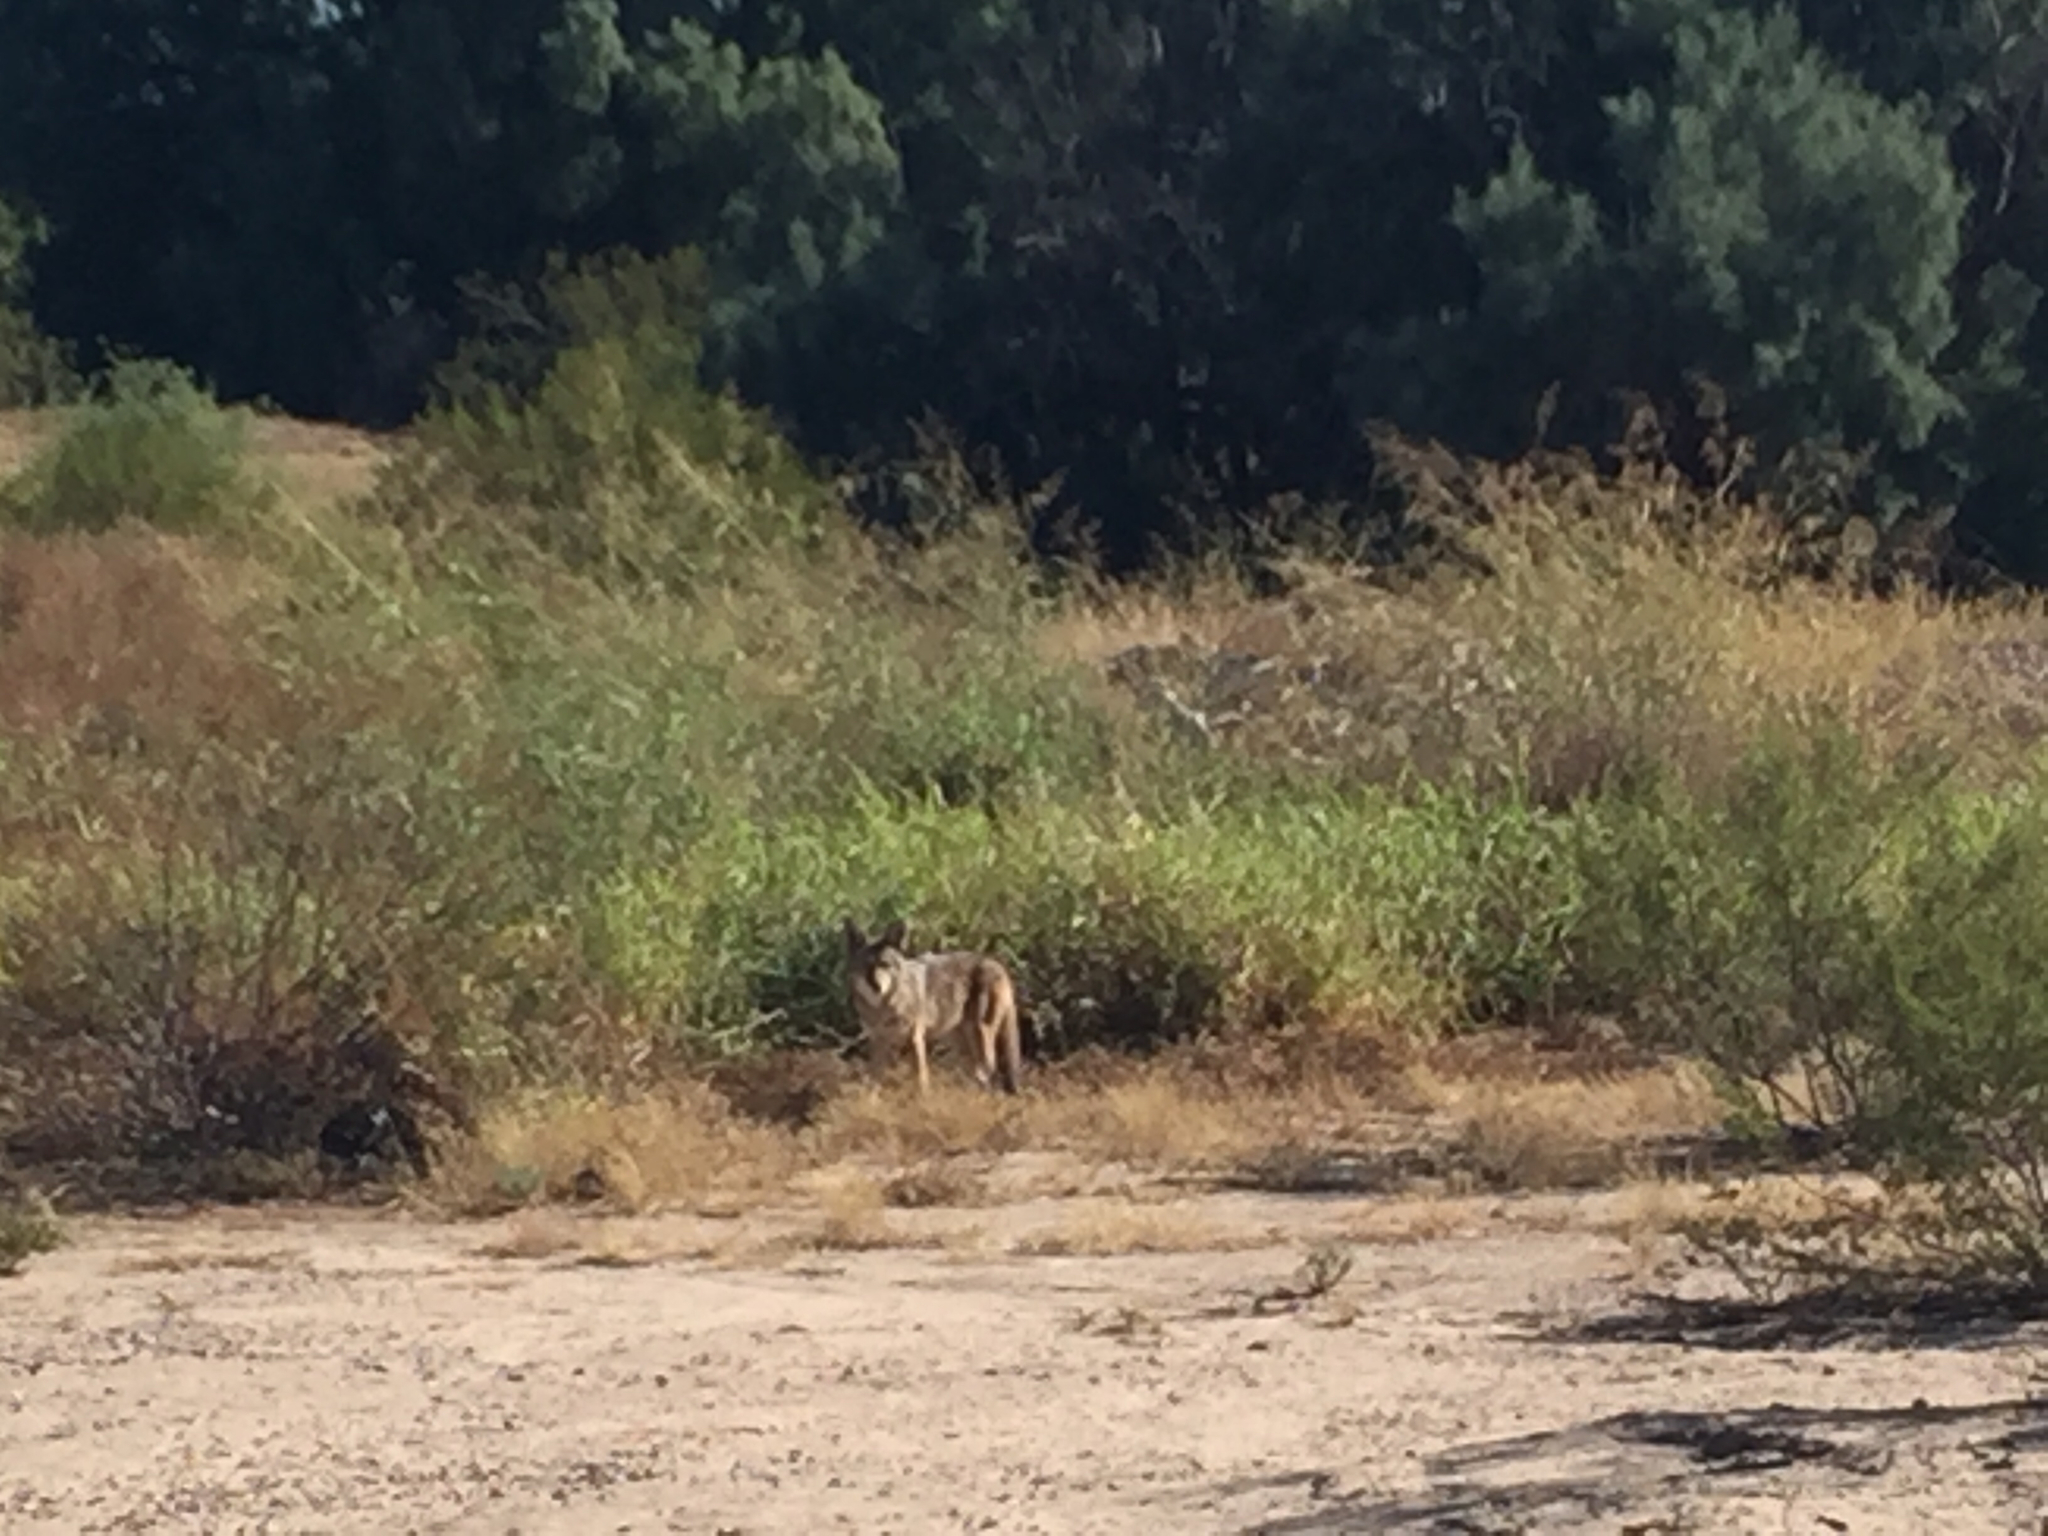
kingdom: Animalia
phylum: Chordata
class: Mammalia
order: Carnivora
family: Canidae
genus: Canis
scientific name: Canis latrans
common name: Coyote
